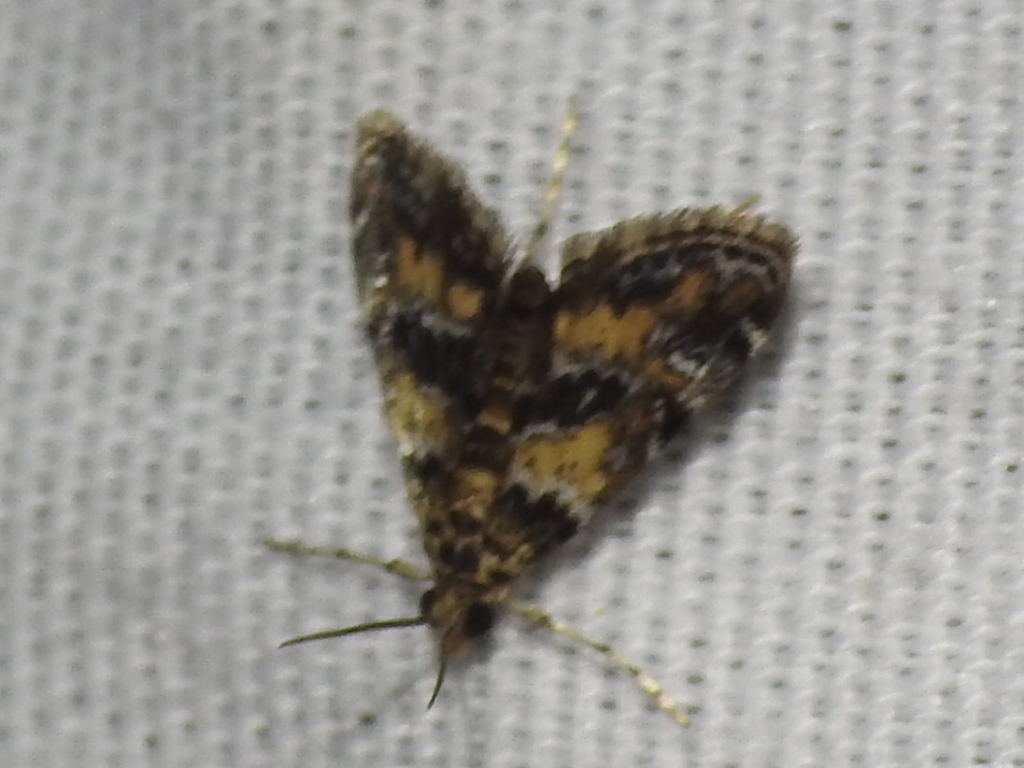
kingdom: Animalia
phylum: Arthropoda
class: Insecta
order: Lepidoptera
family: Crambidae
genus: Elophila
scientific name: Elophila obliteralis
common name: Waterlily leafcutter moth
